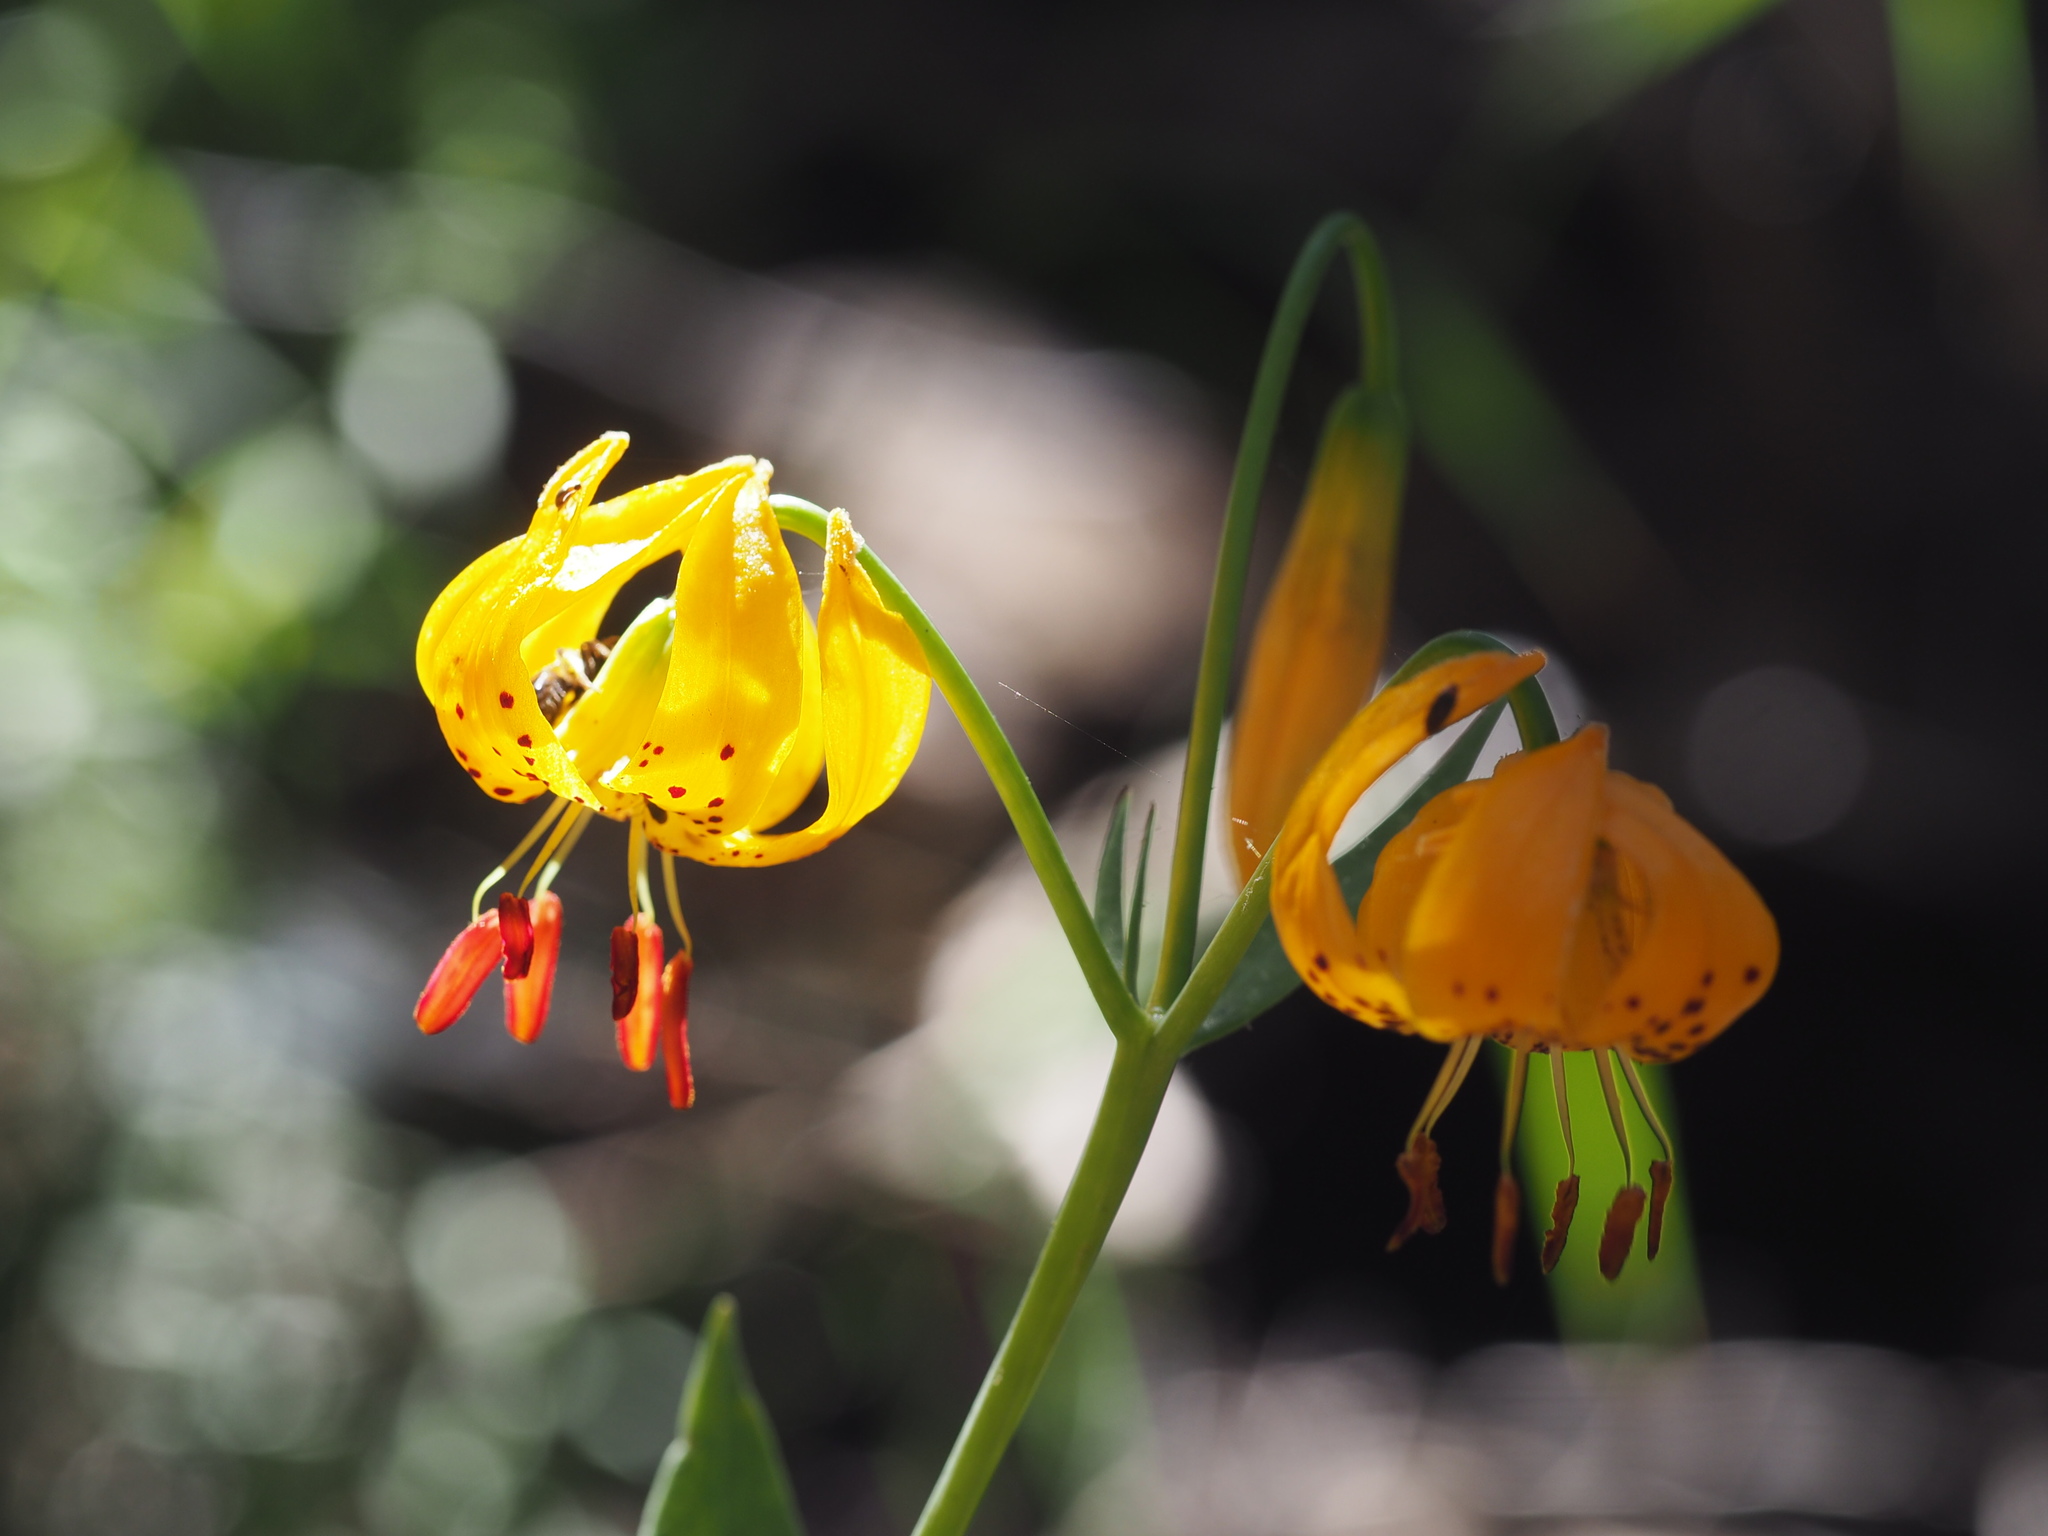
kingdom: Plantae
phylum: Tracheophyta
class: Liliopsida
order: Liliales
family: Liliaceae
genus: Lilium
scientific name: Lilium kelleyanum
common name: Kelley's lily
